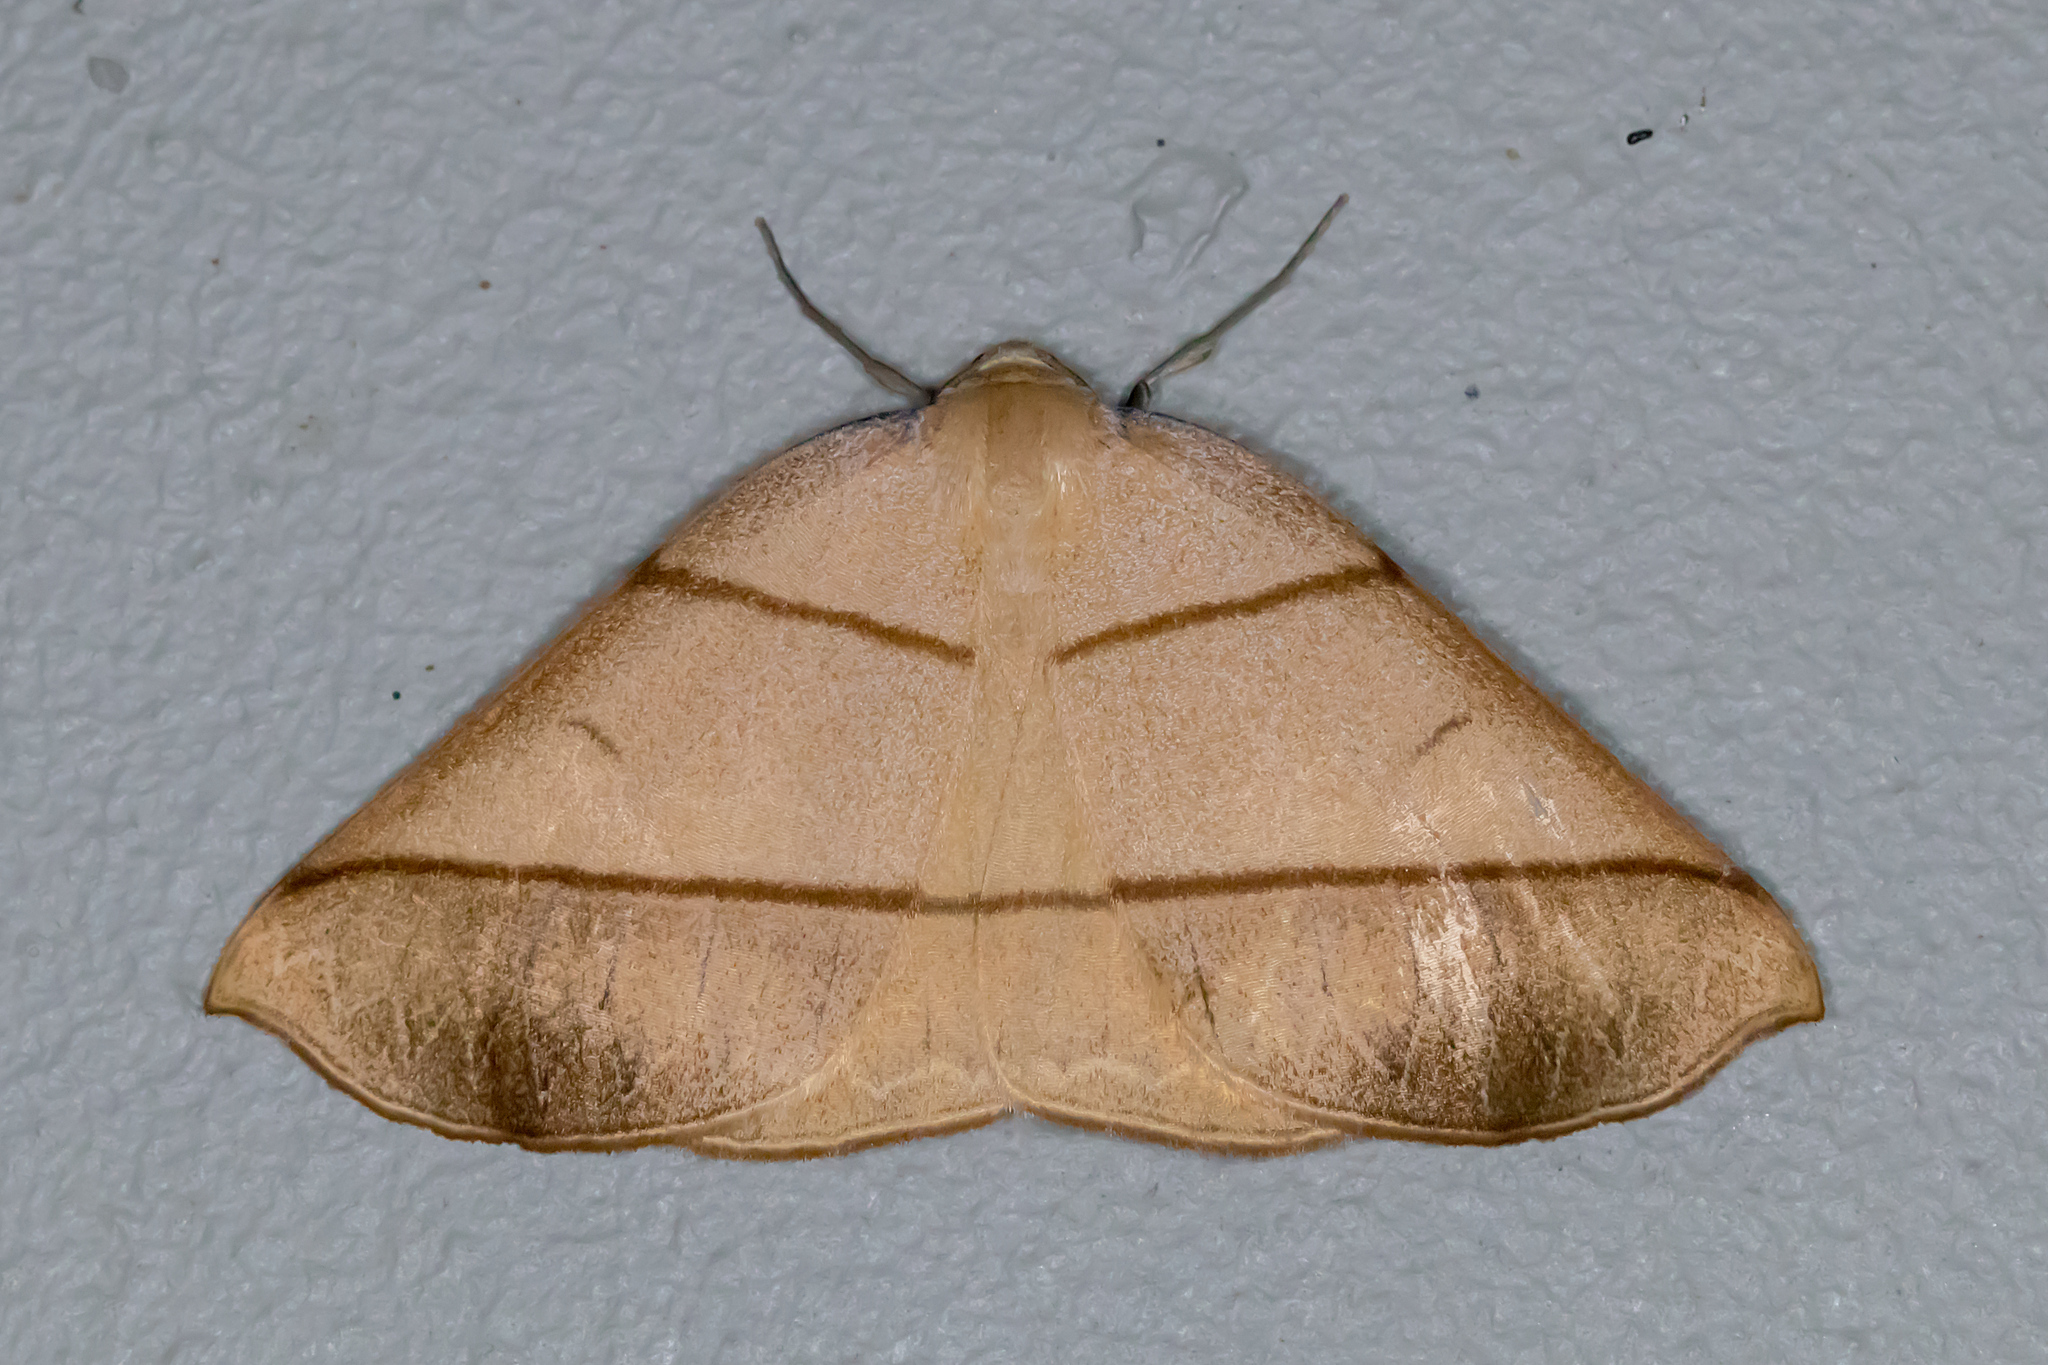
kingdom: Animalia
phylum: Arthropoda
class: Insecta
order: Lepidoptera
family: Geometridae
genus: Systatica
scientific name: Systatica xanthastis
